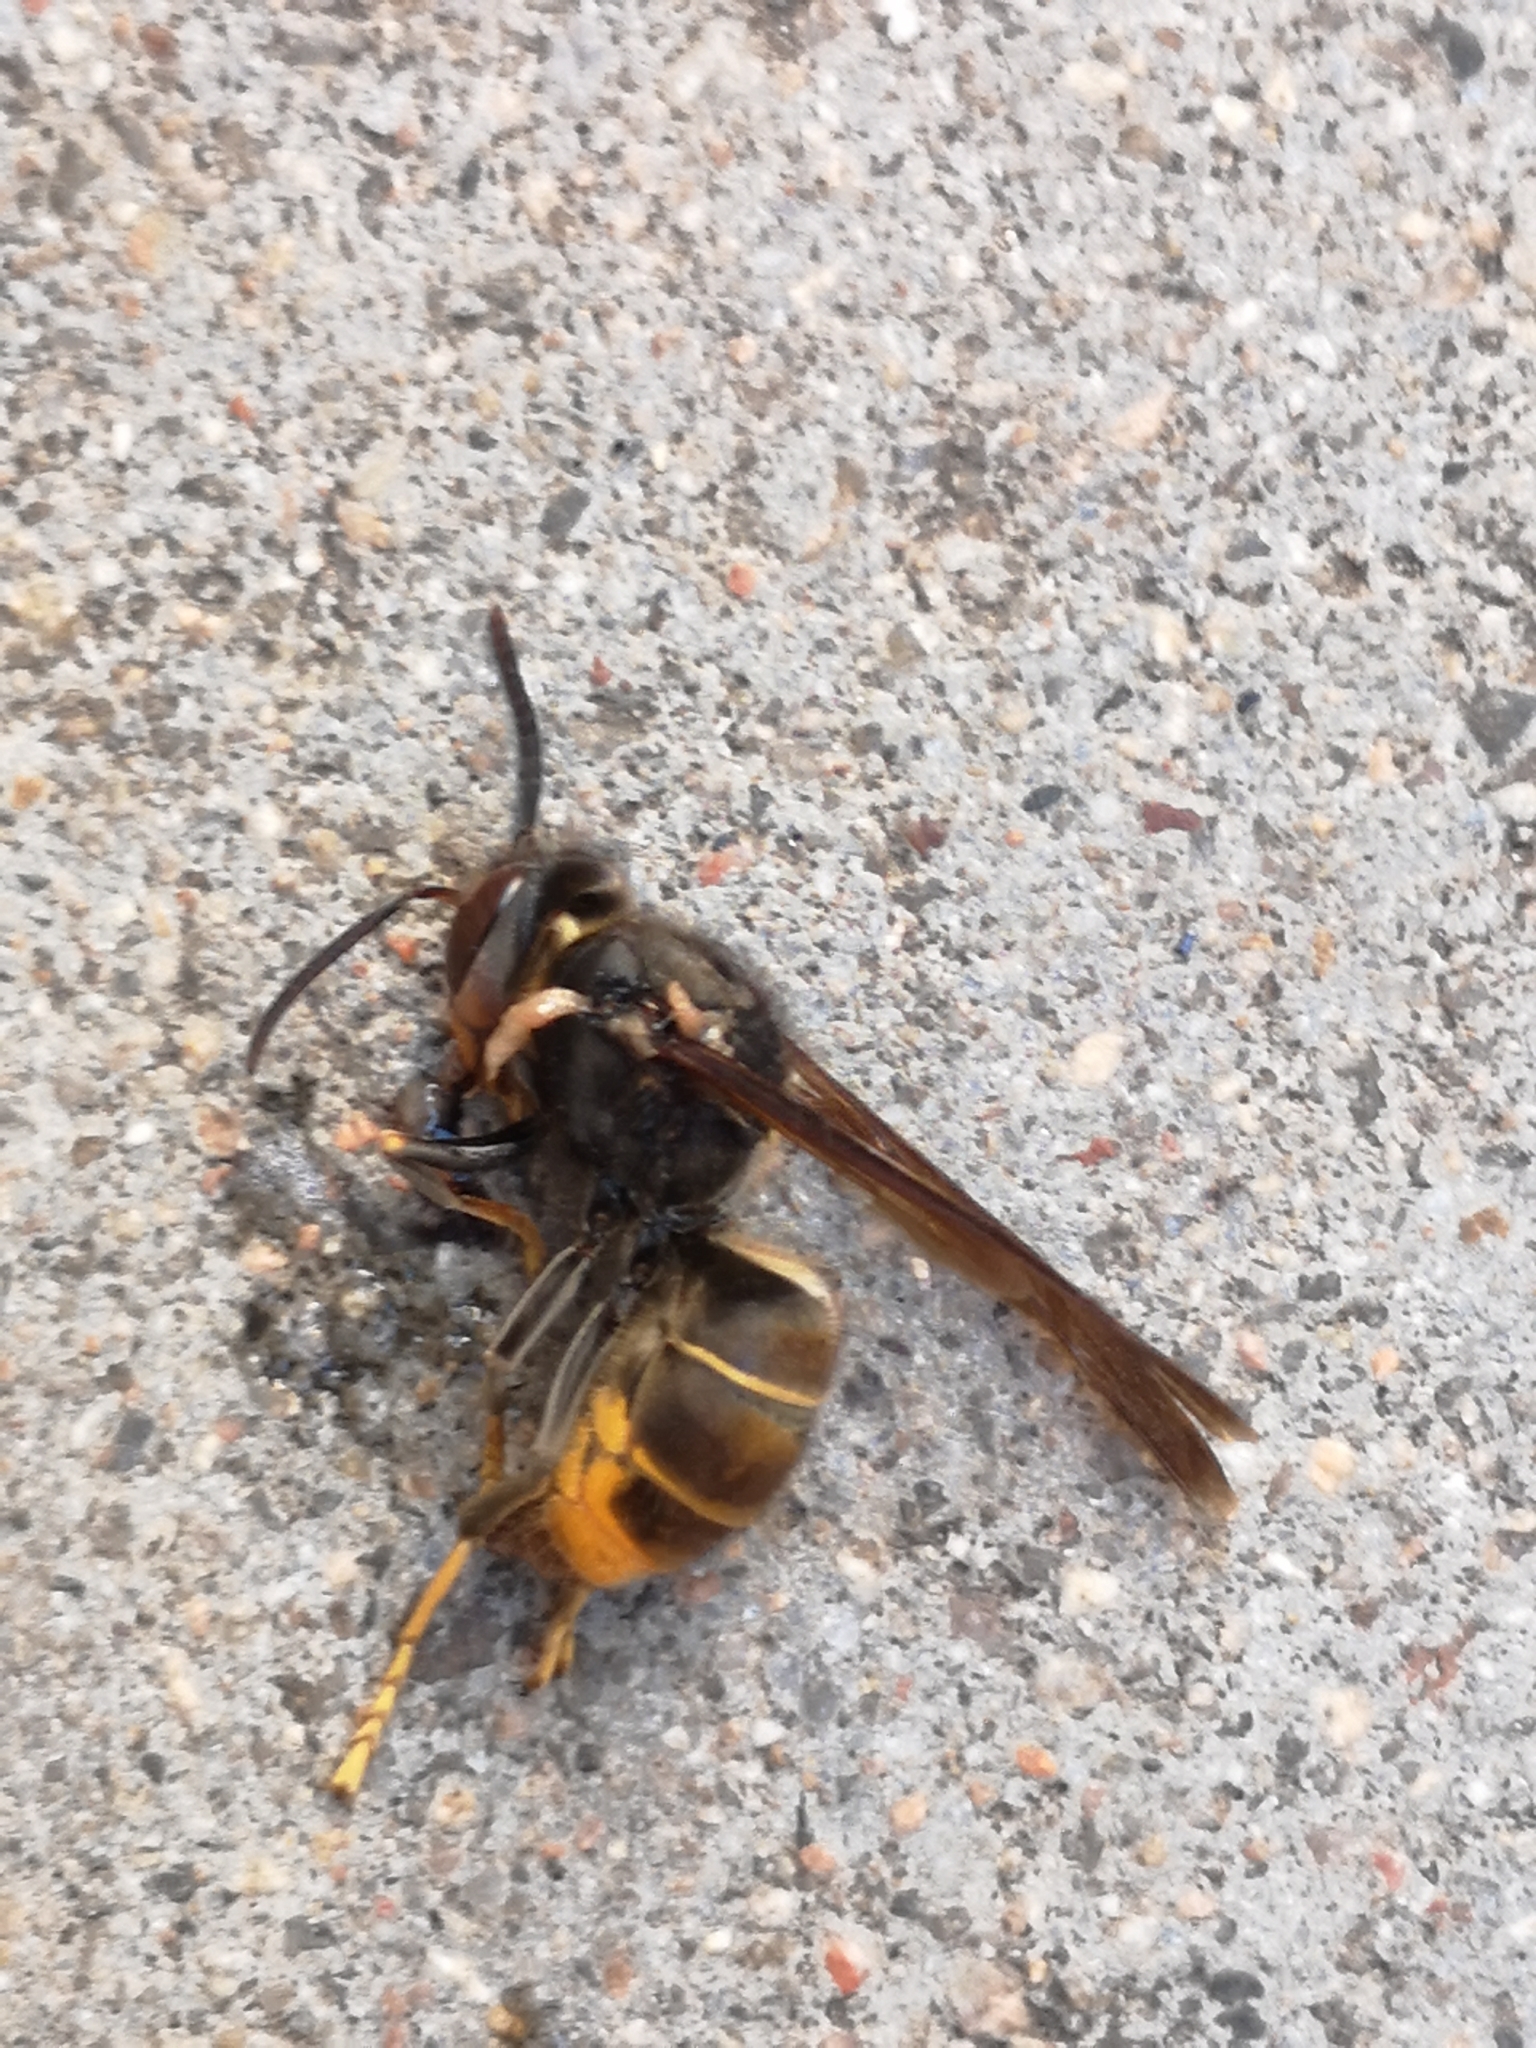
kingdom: Animalia
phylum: Arthropoda
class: Insecta
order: Hymenoptera
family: Vespidae
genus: Vespa
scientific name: Vespa velutina
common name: Asian hornet
